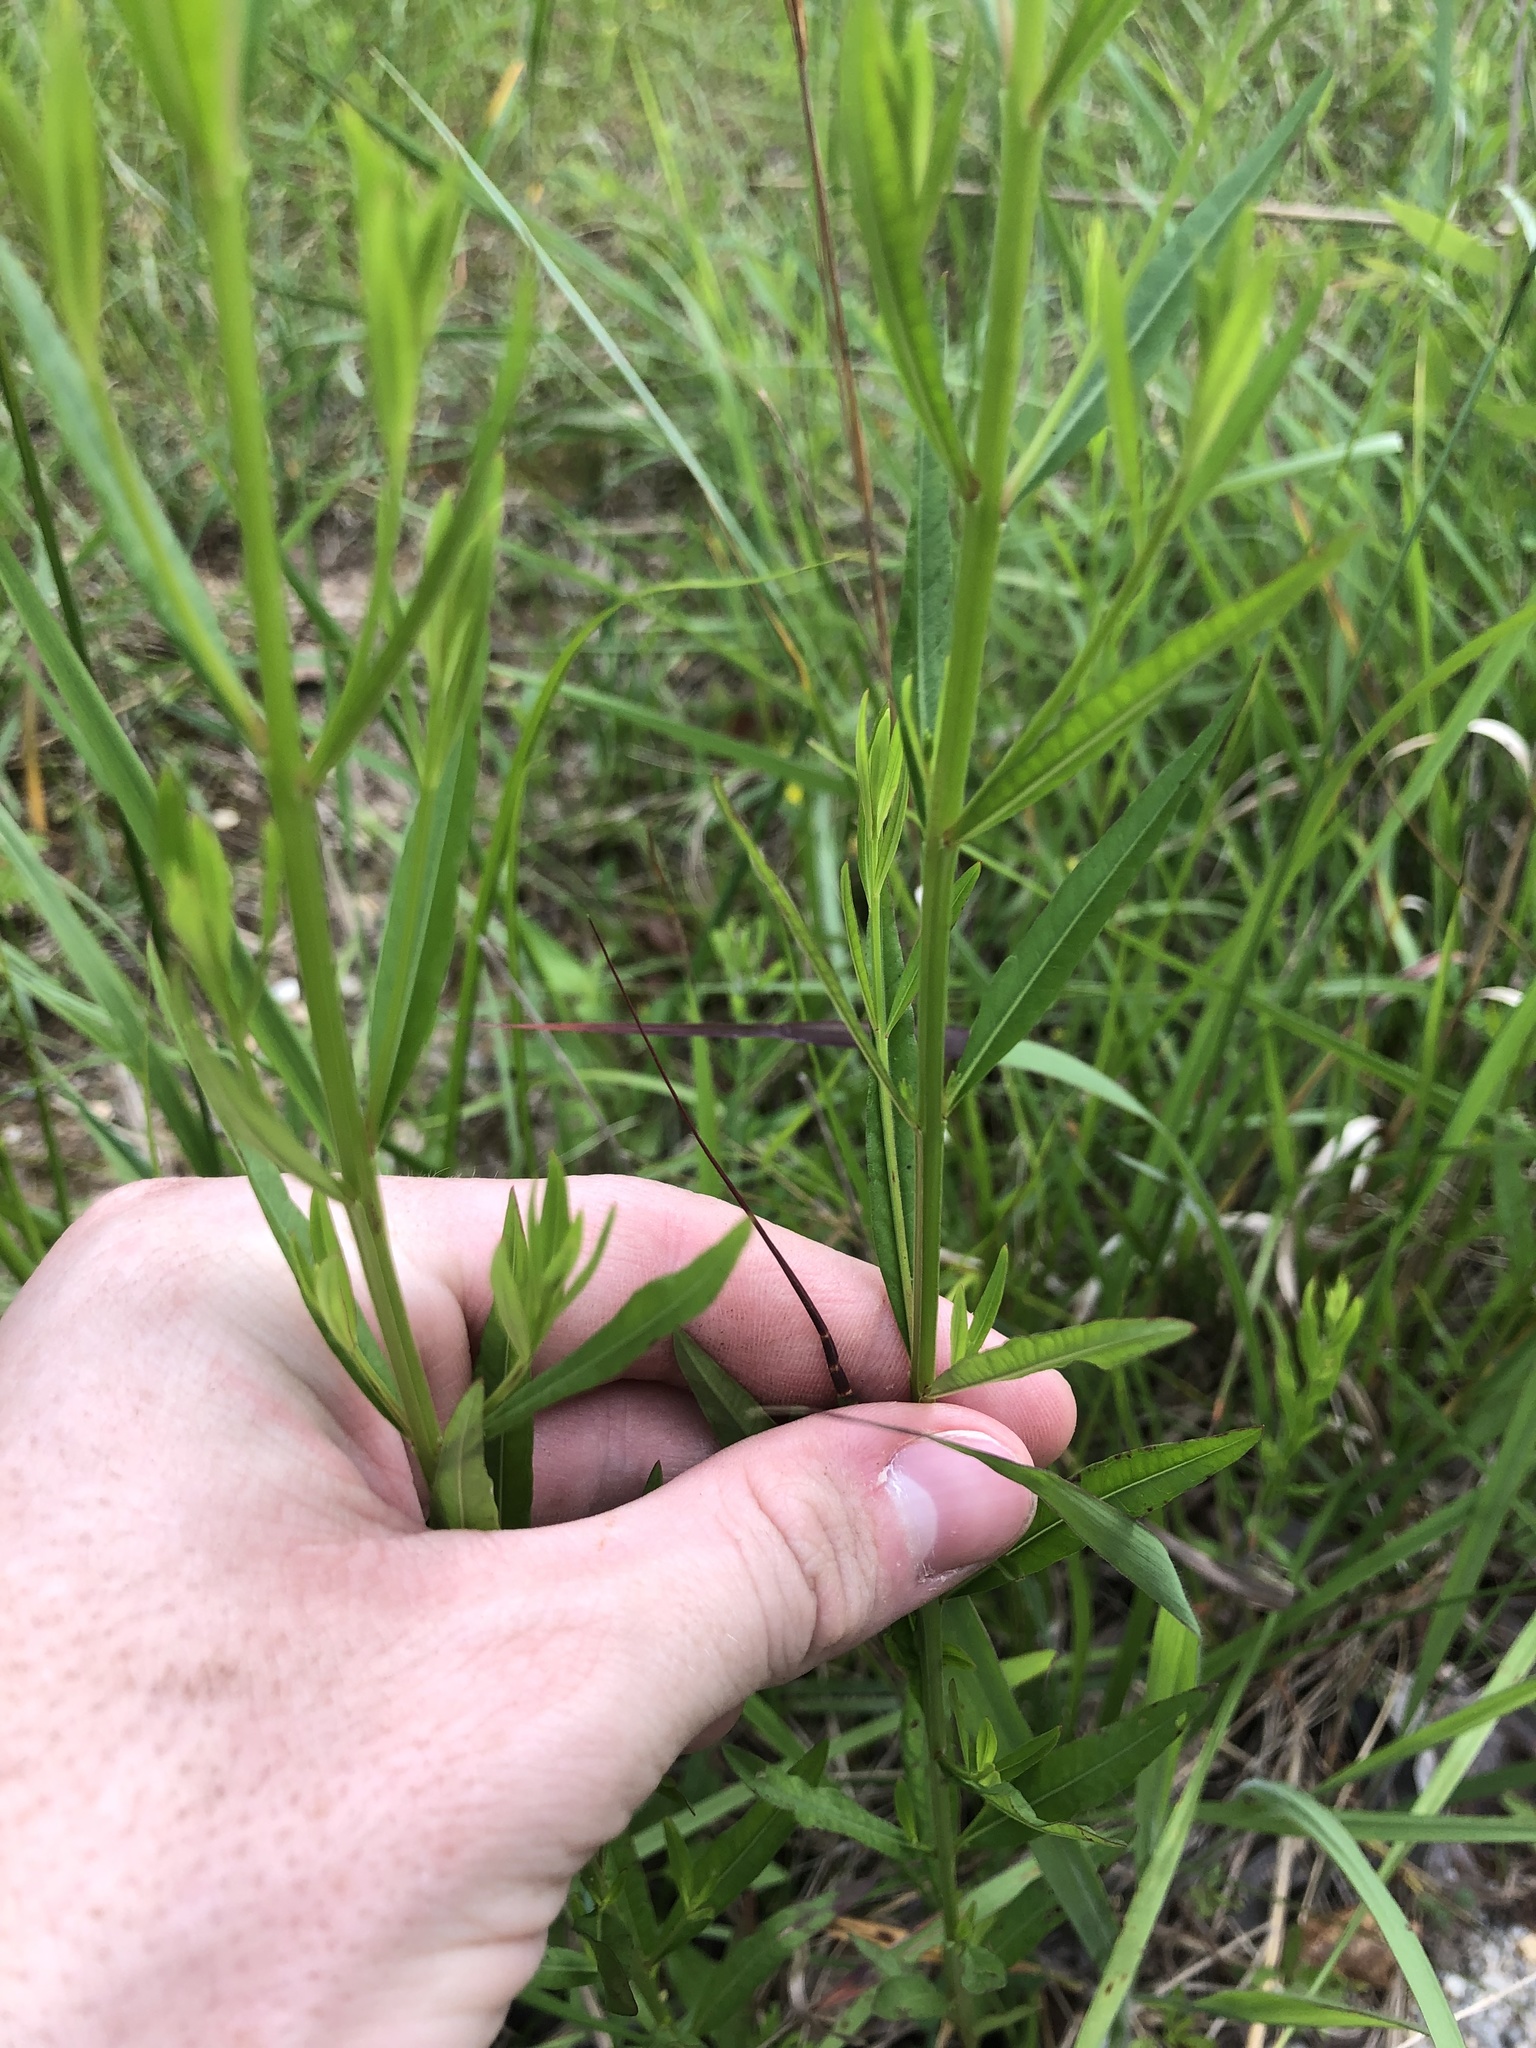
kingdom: Plantae
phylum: Tracheophyta
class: Magnoliopsida
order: Myrtales
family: Lythraceae
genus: Lythrum
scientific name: Lythrum alatum
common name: Winged loosestrife
